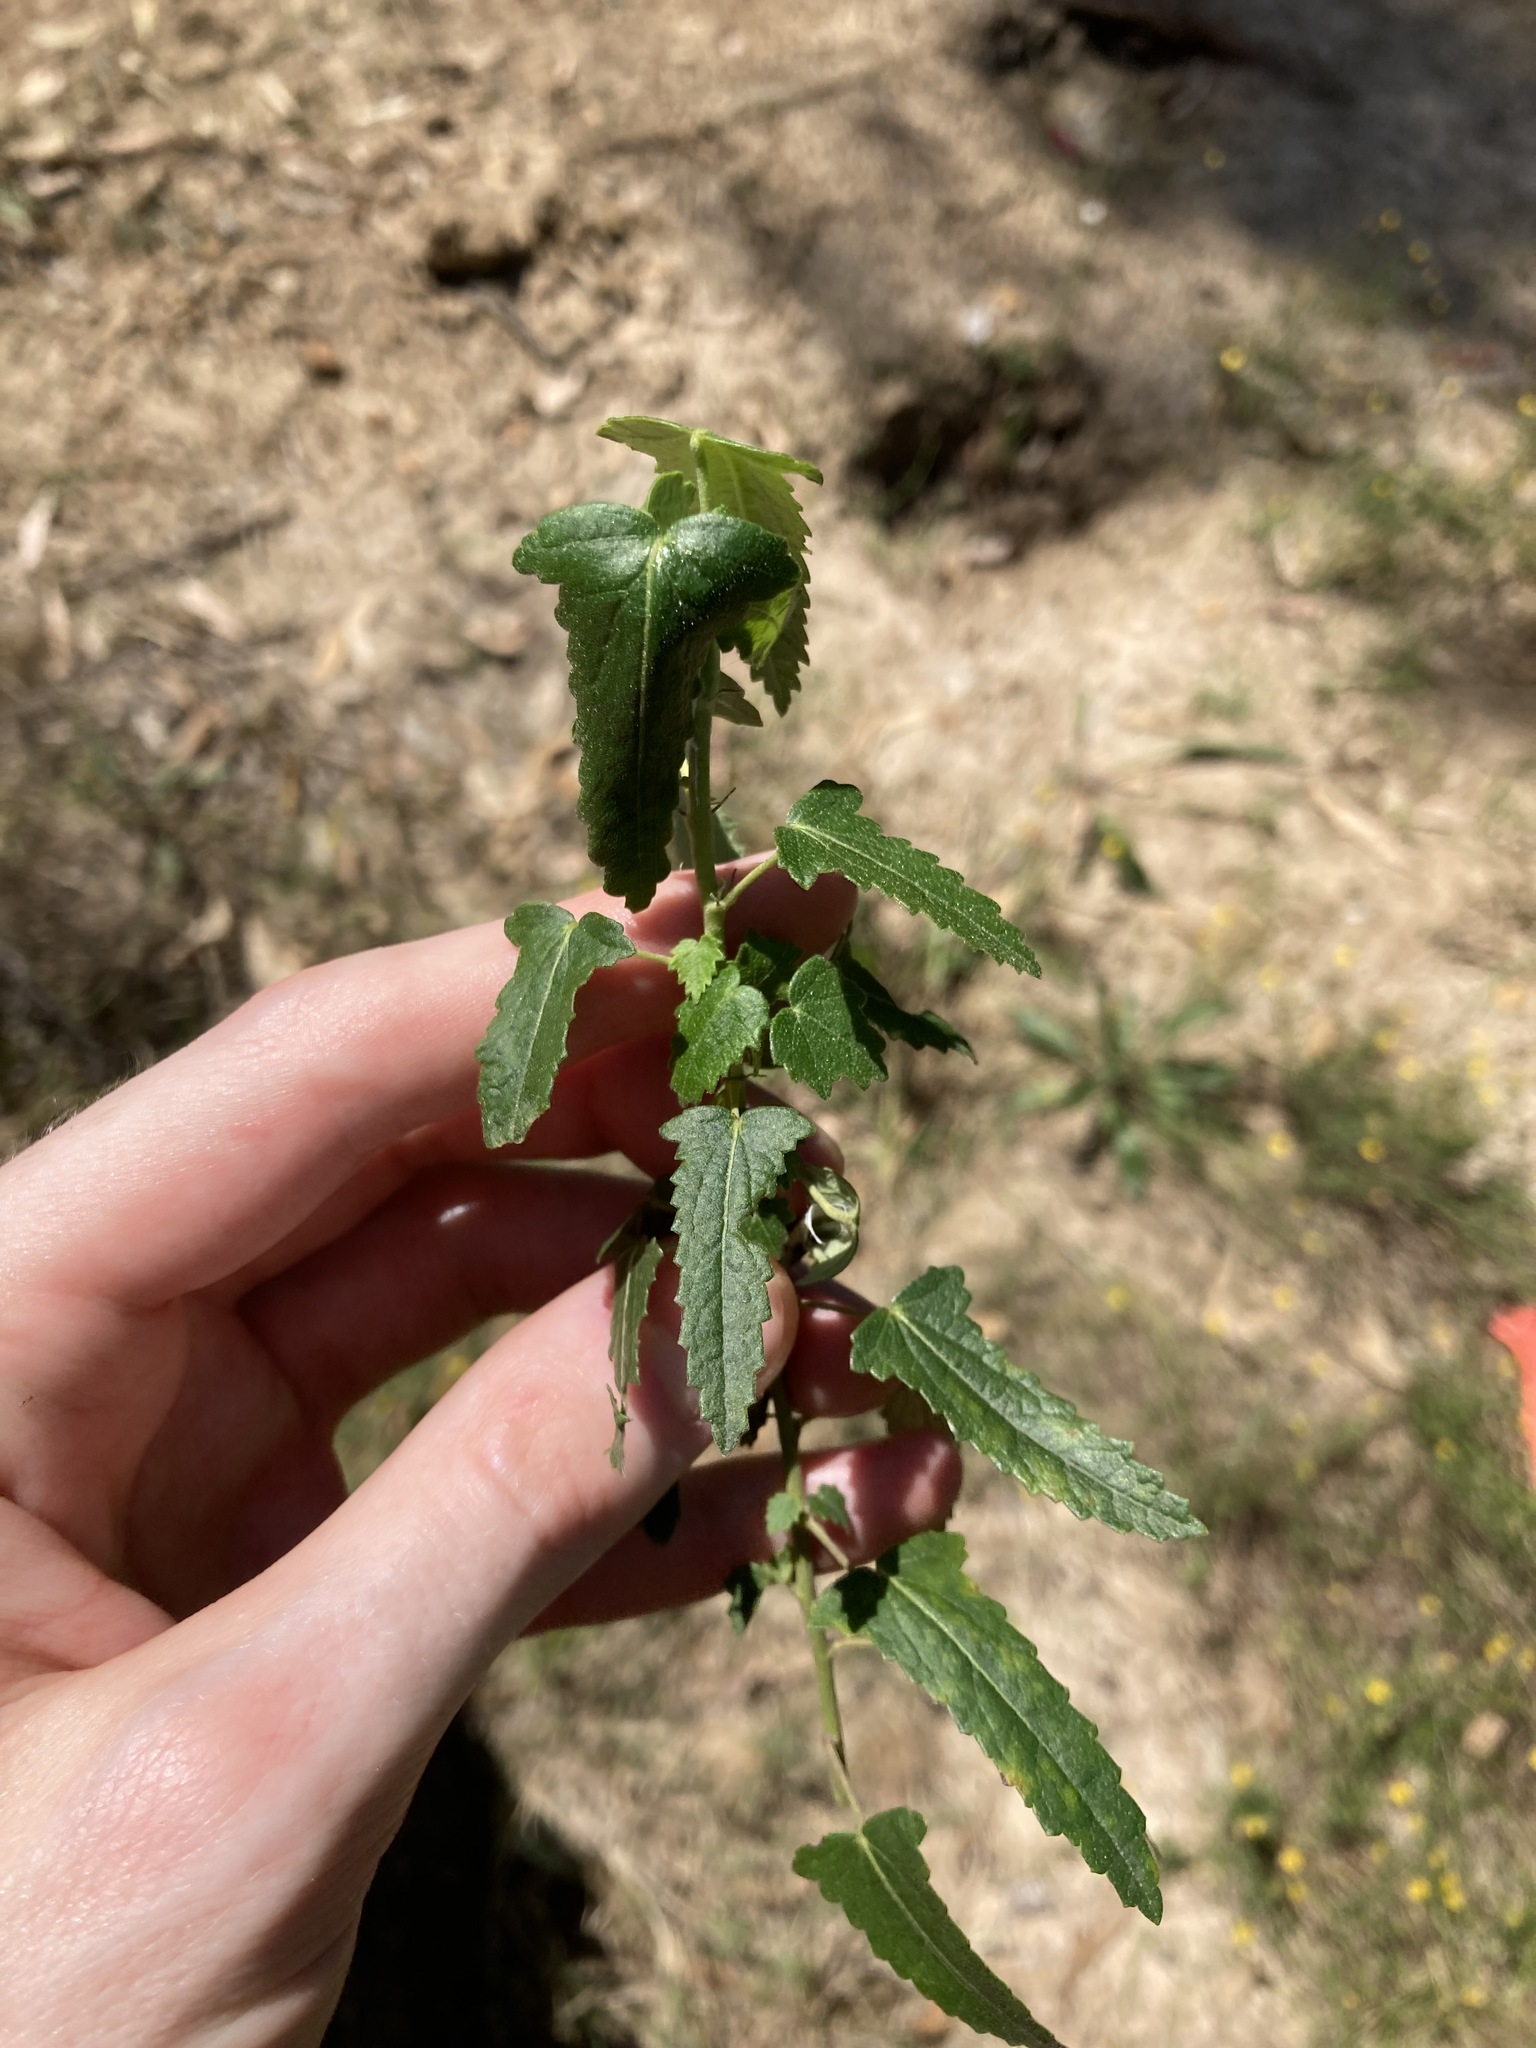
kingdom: Plantae
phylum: Tracheophyta
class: Magnoliopsida
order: Malvales
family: Malvaceae
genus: Pavonia
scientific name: Pavonia hastata
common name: Spearleaf swampmallow
